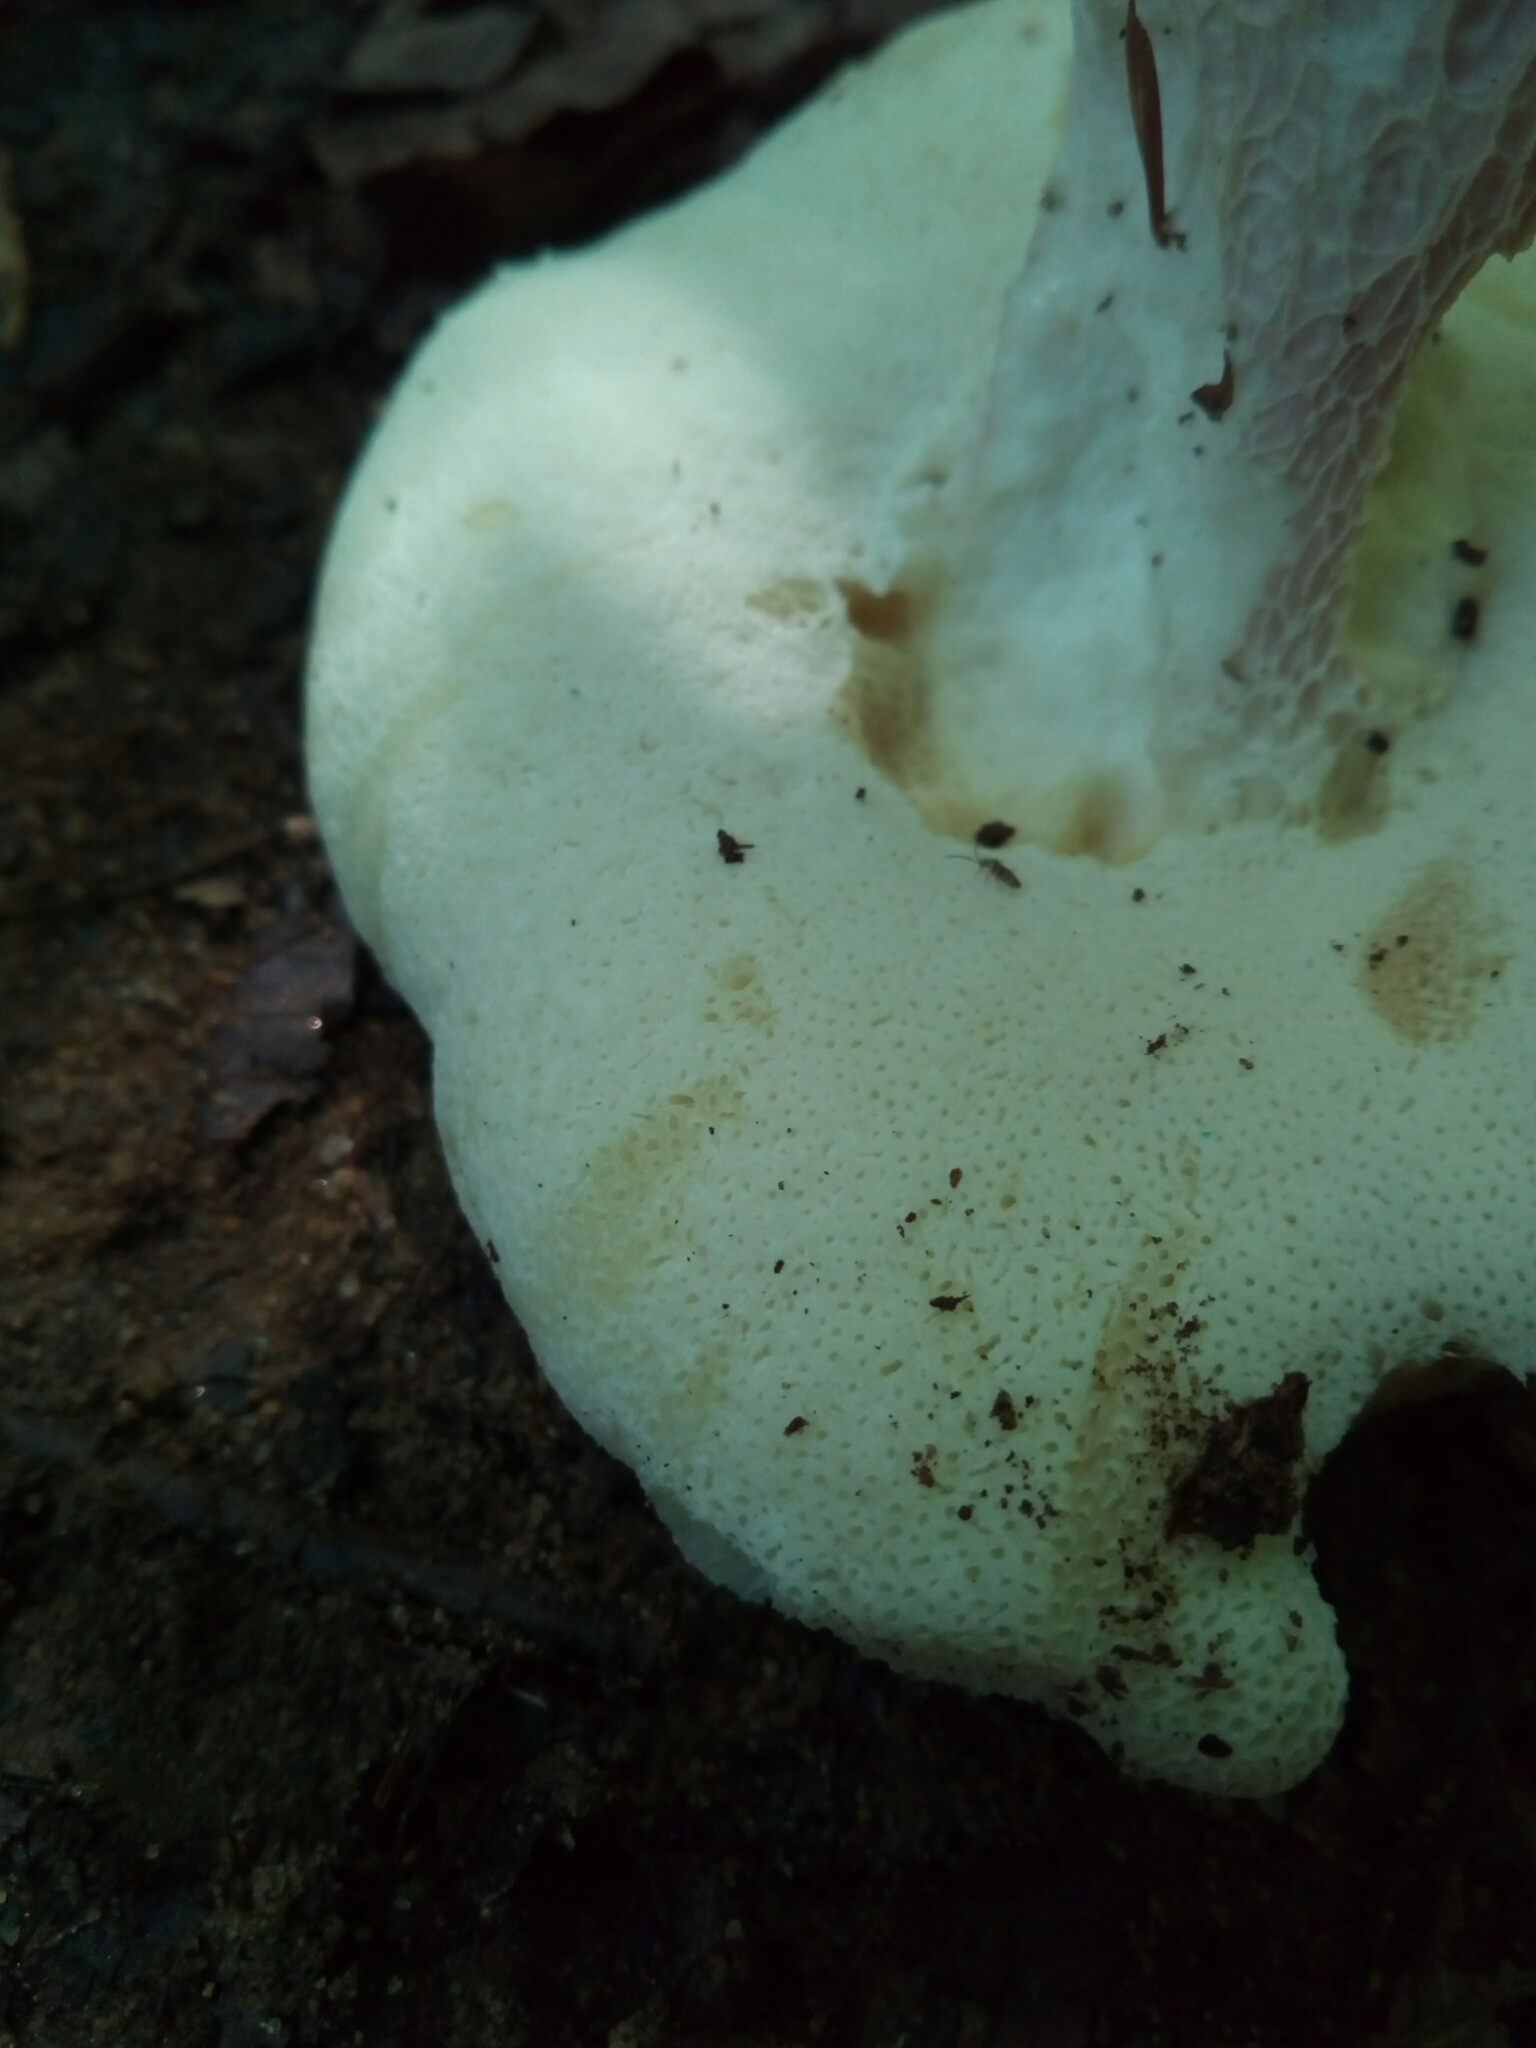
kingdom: Fungi
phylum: Basidiomycota
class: Agaricomycetes
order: Boletales
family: Boletaceae
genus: Xanthoconium
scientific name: Xanthoconium separans
